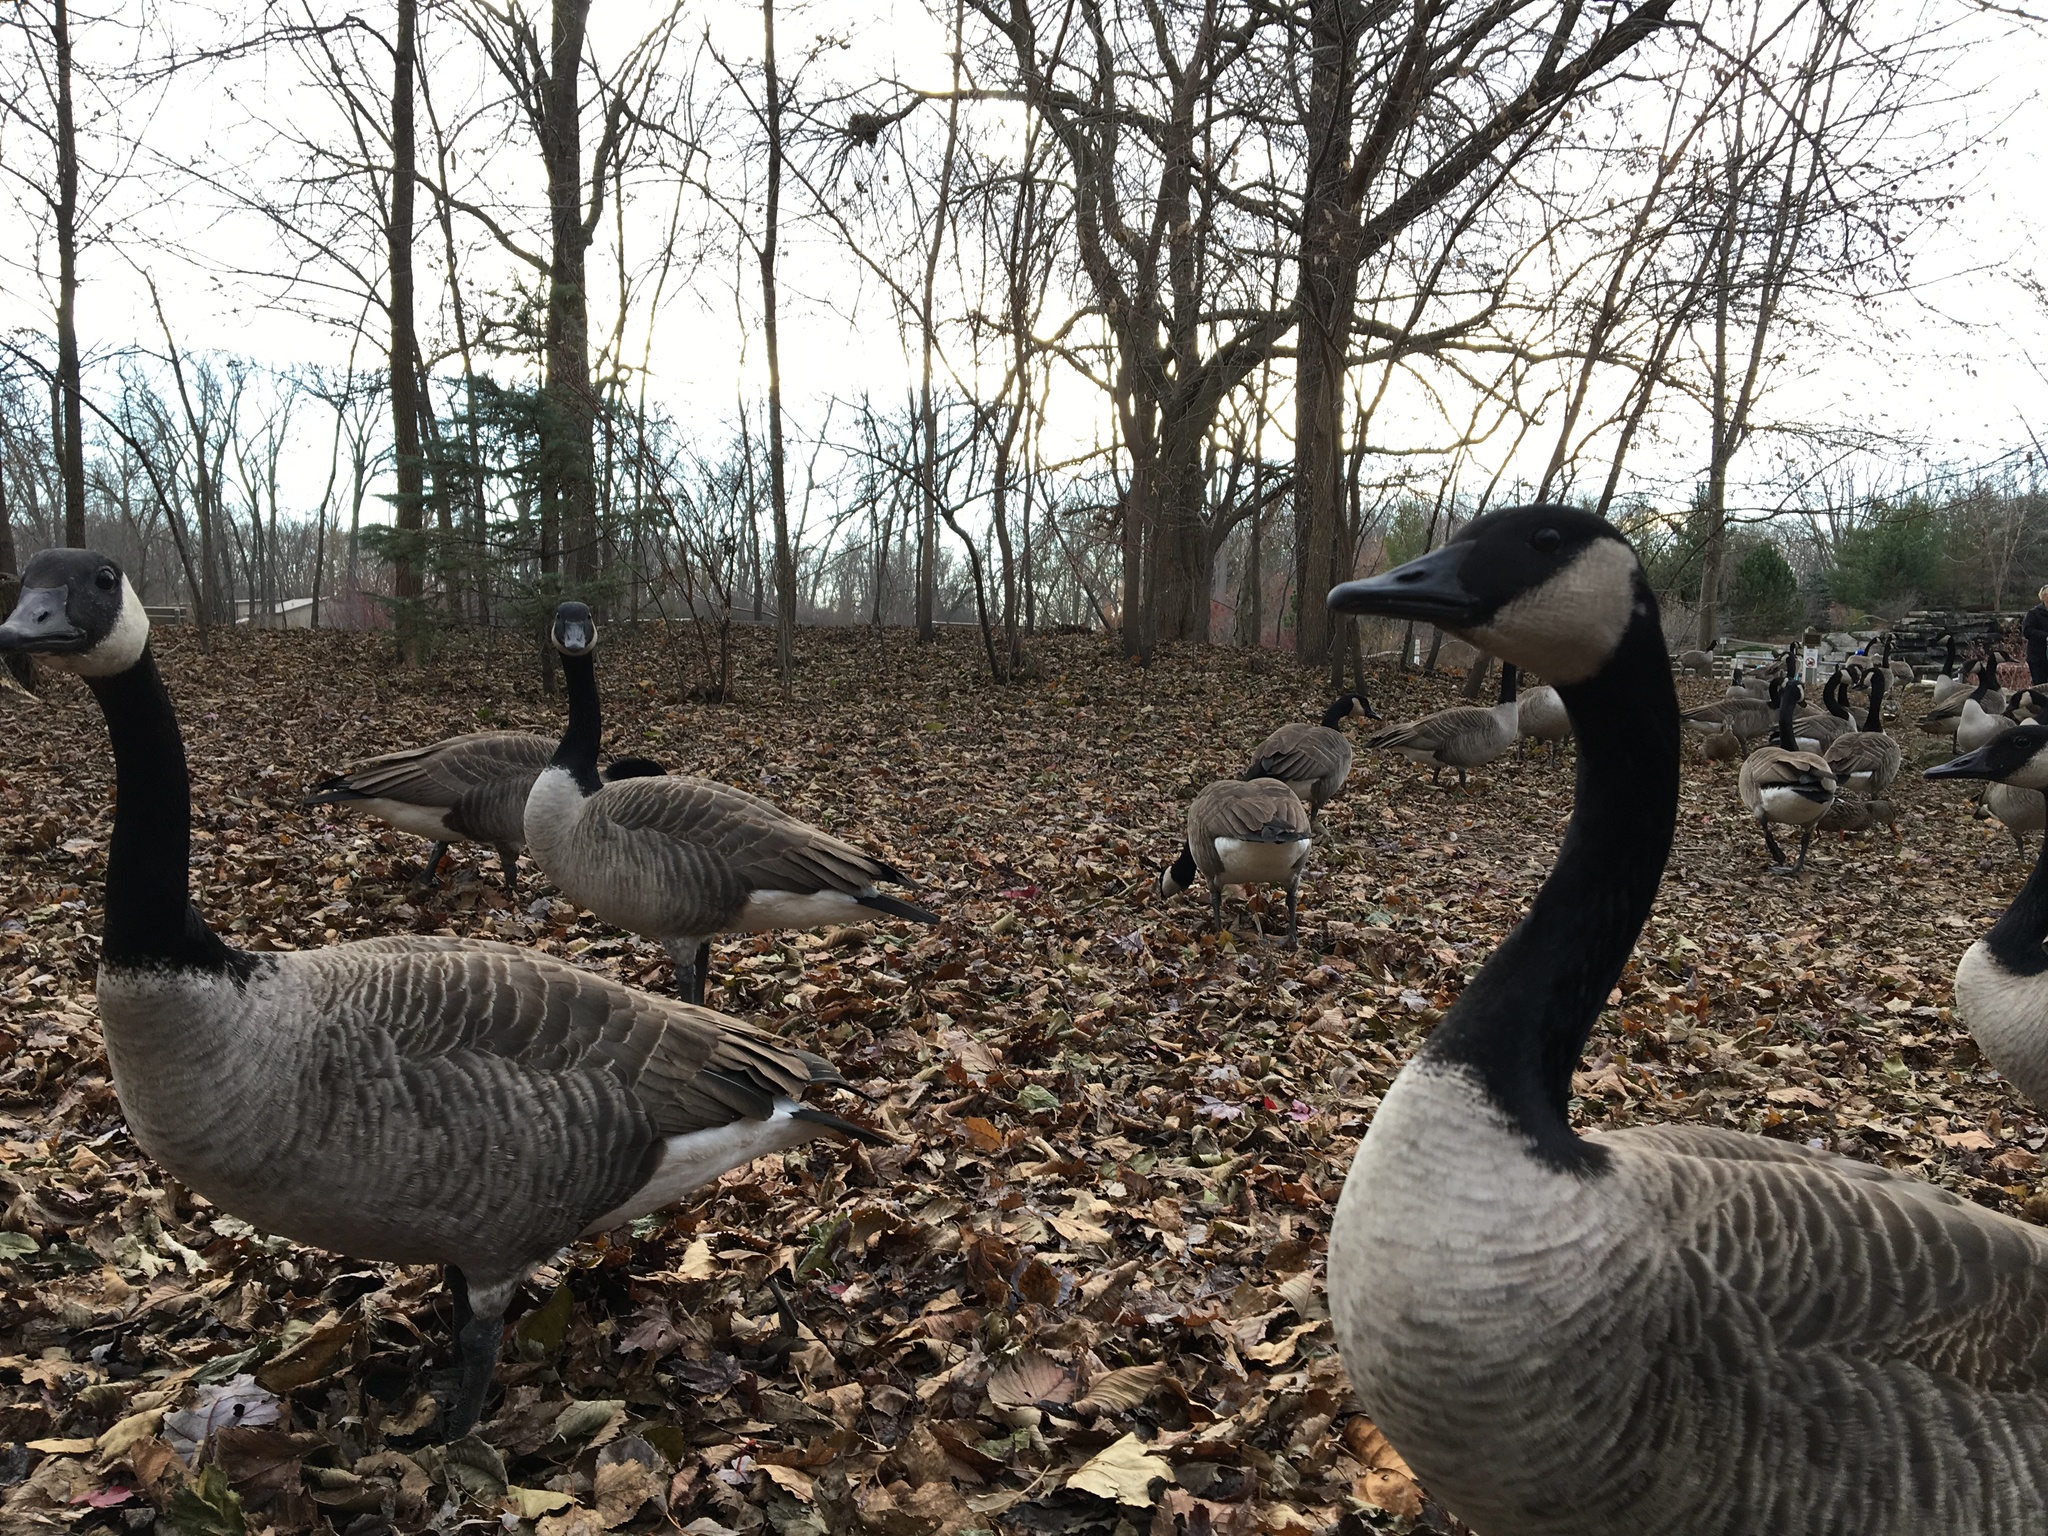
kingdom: Animalia
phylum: Chordata
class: Aves
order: Anseriformes
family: Anatidae
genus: Branta
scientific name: Branta canadensis
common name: Canada goose
